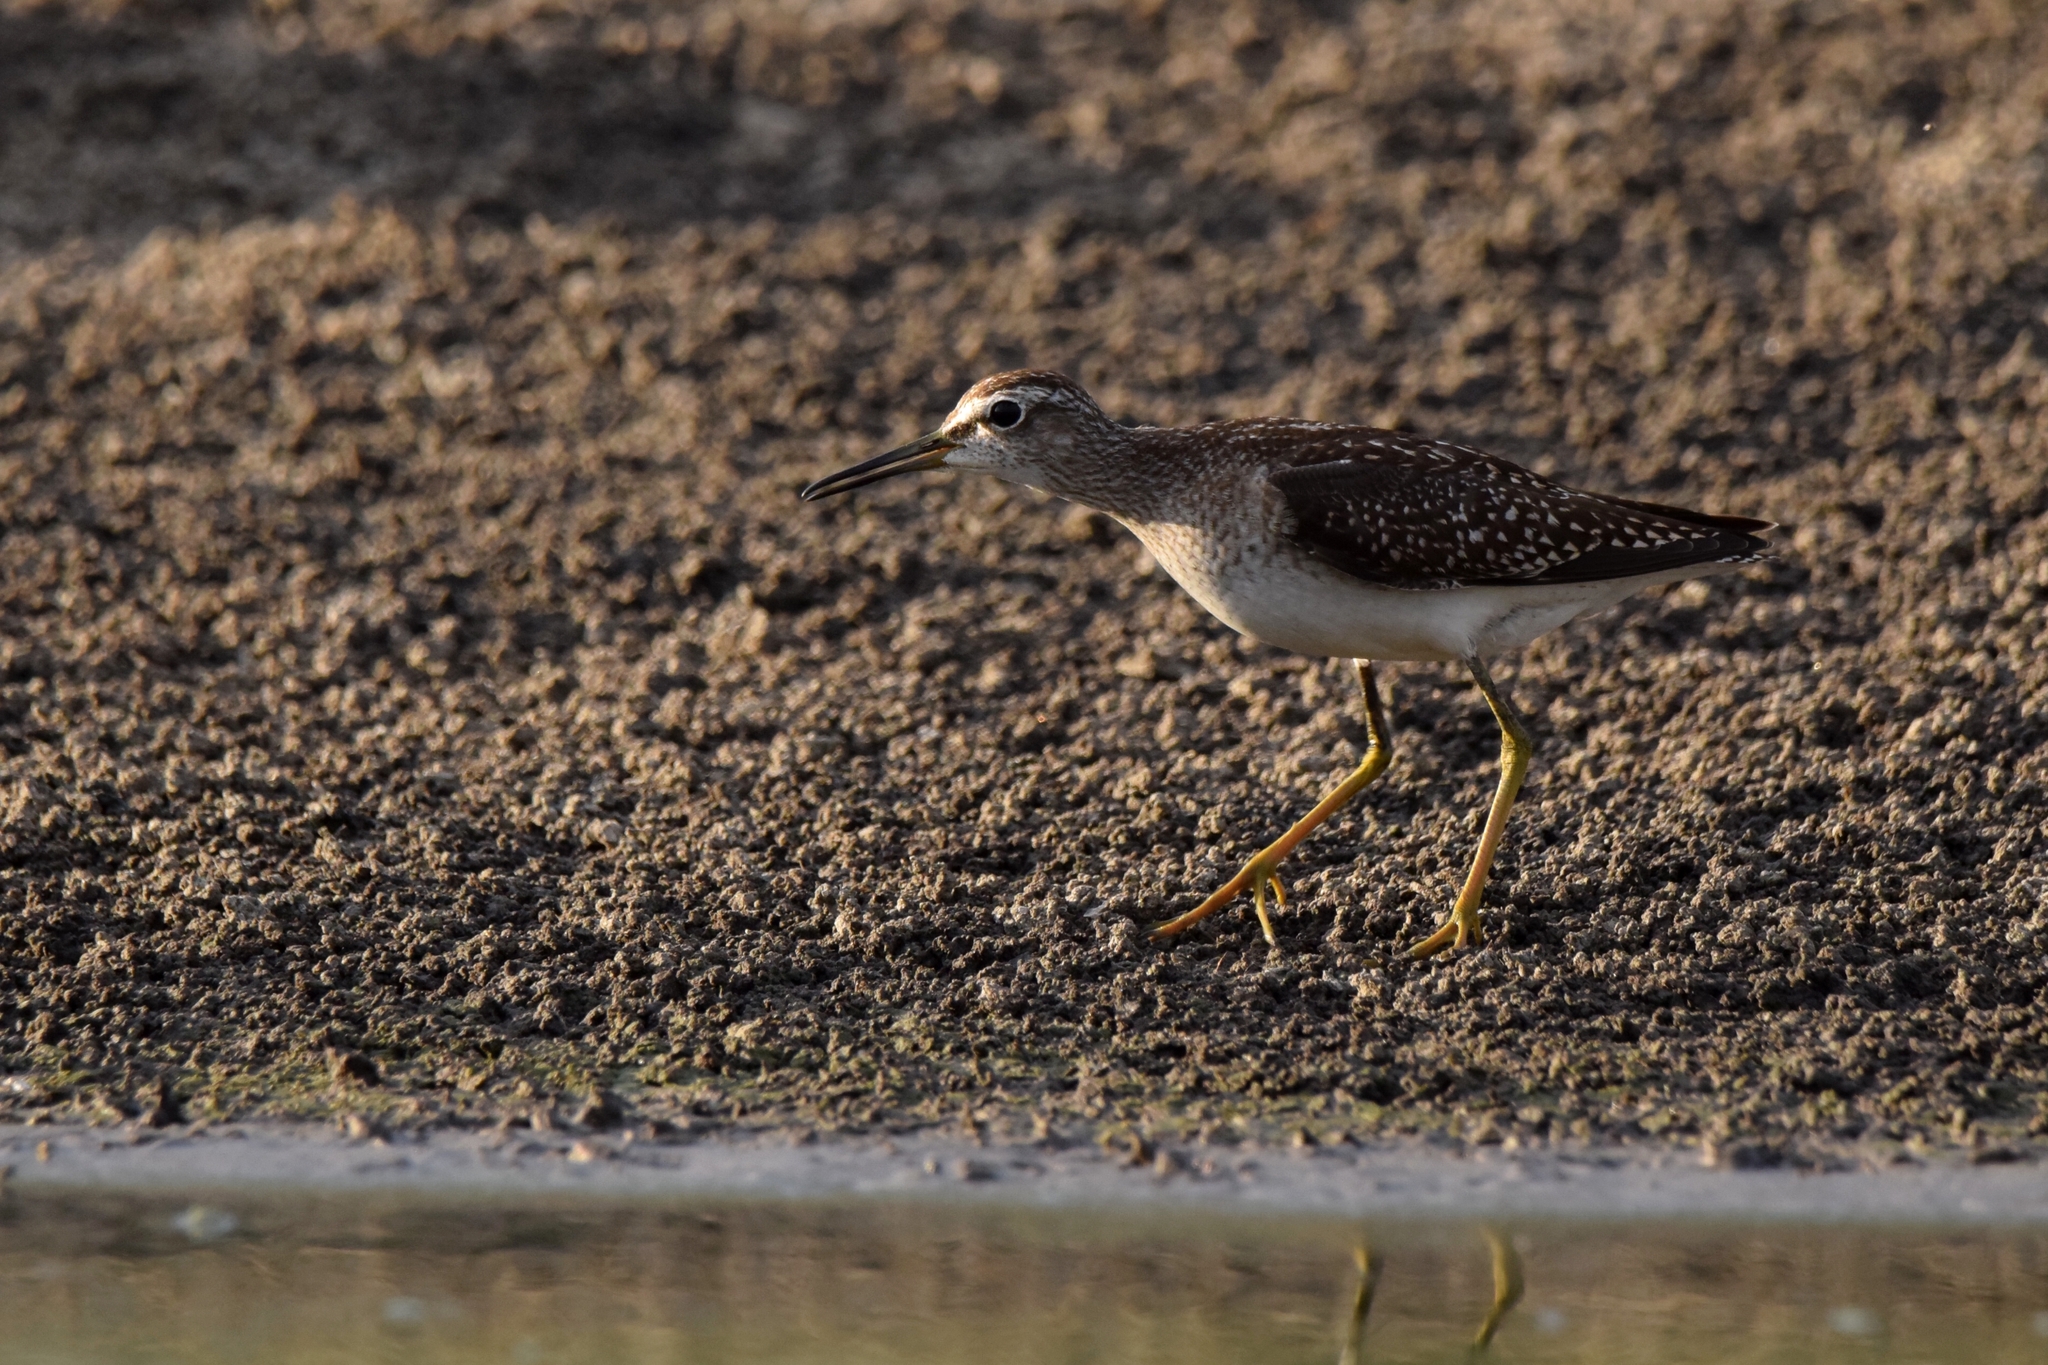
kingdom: Animalia
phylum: Chordata
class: Aves
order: Charadriiformes
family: Scolopacidae
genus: Tringa
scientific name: Tringa glareola
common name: Wood sandpiper
